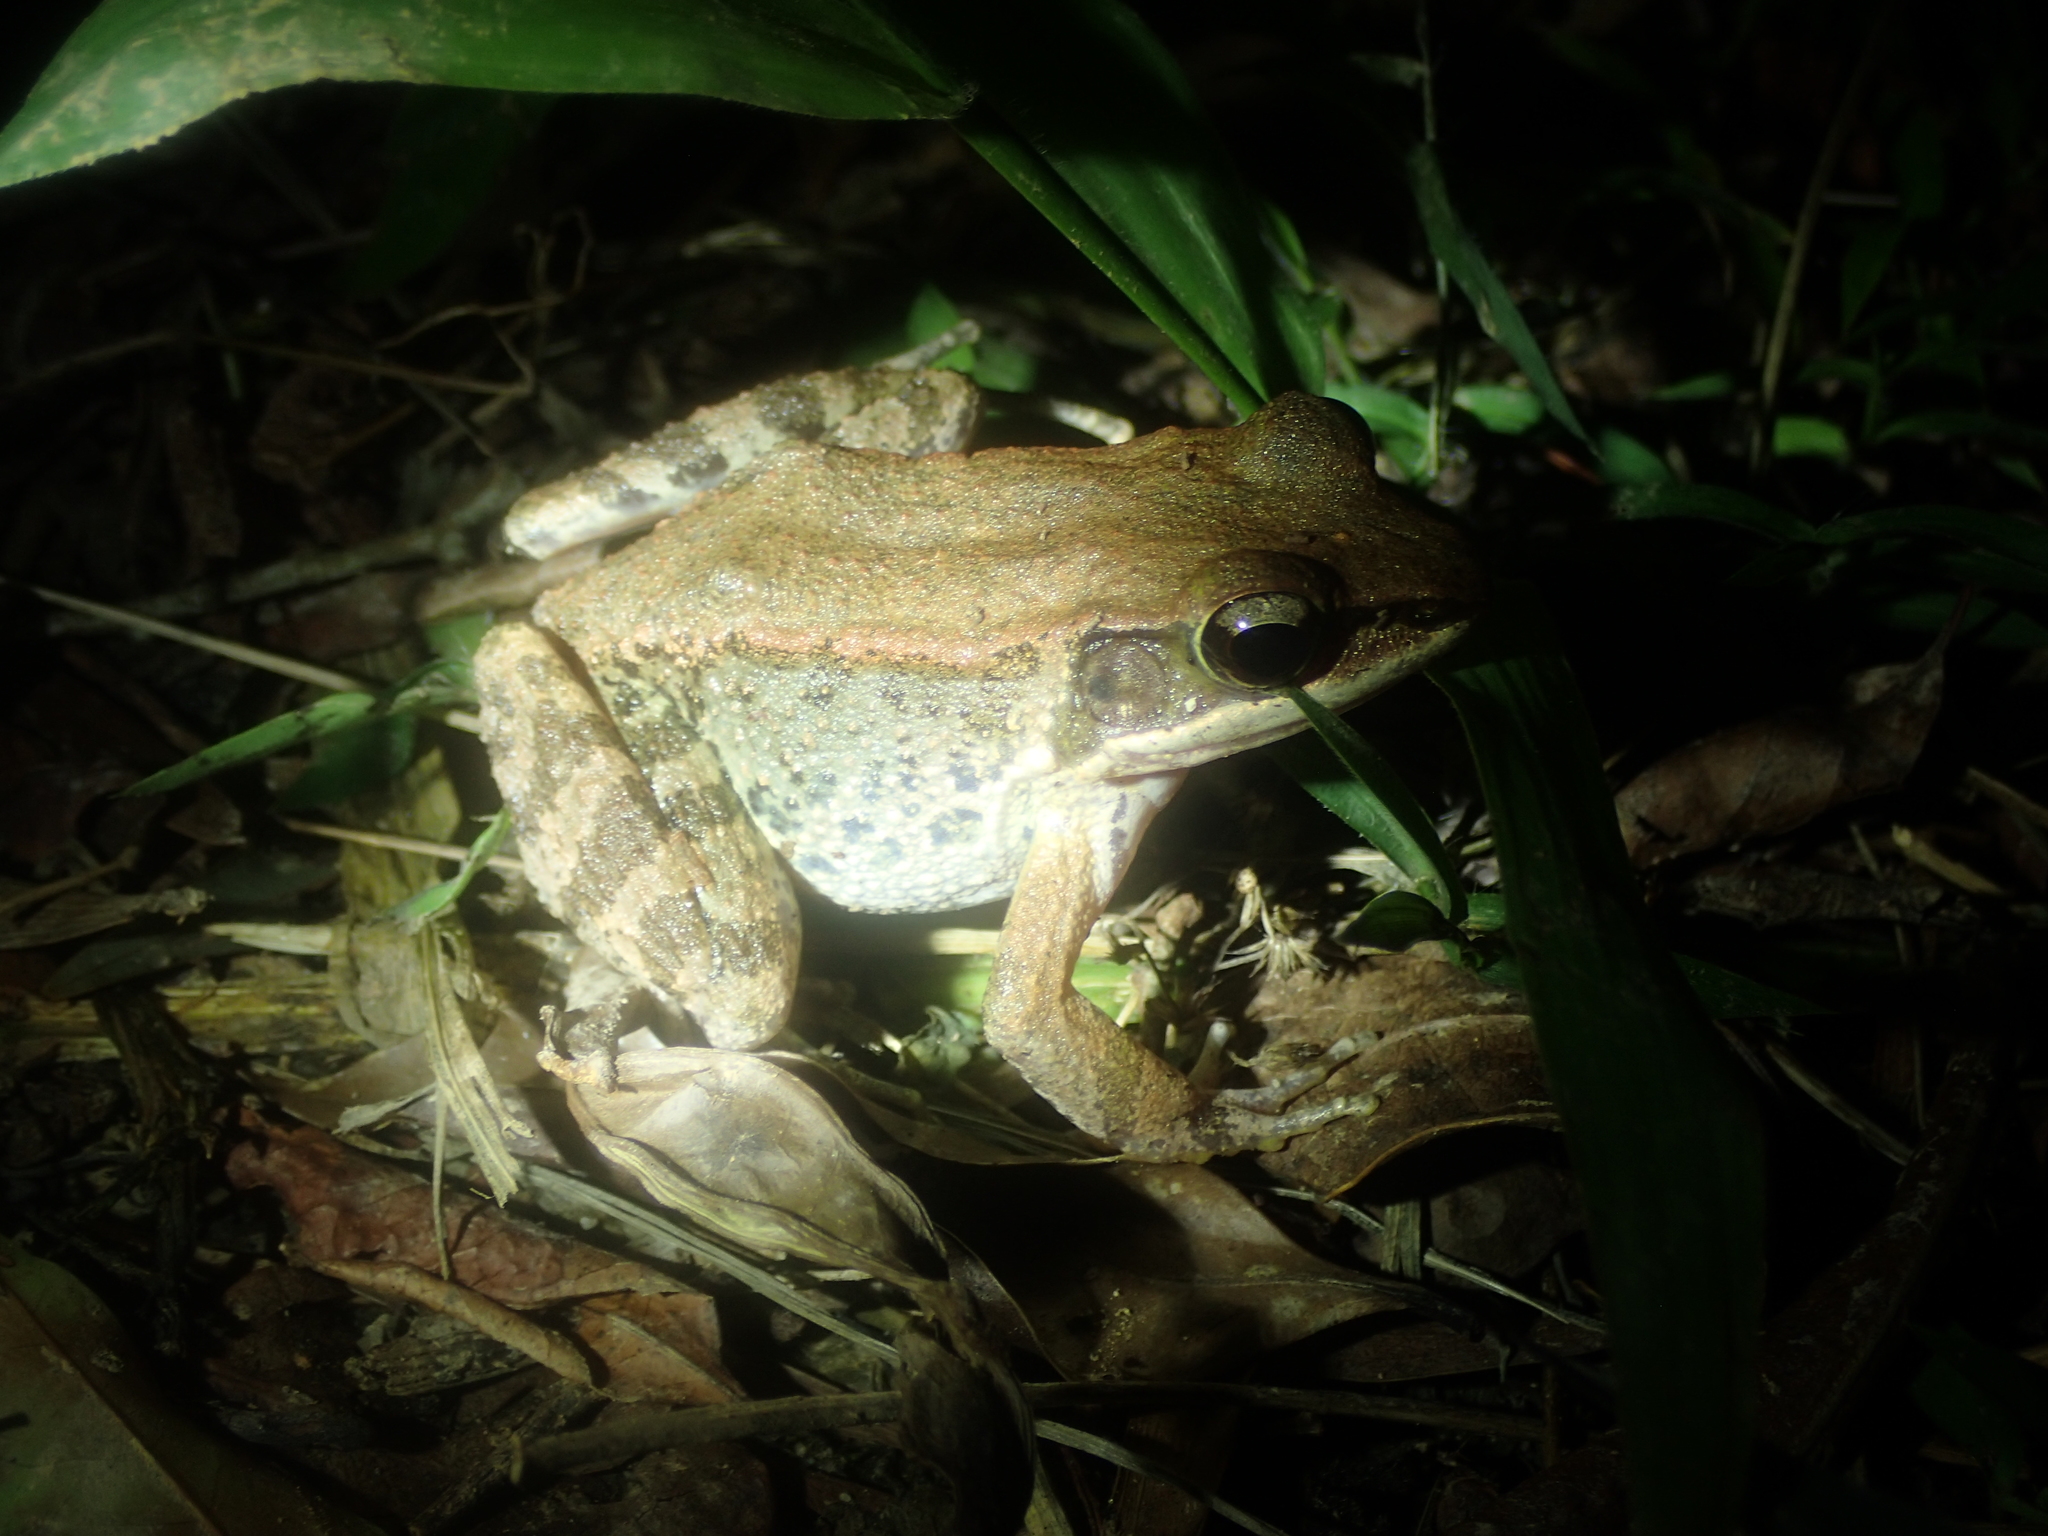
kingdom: Animalia
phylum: Chordata
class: Amphibia
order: Anura
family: Ranidae
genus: Hylarana
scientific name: Hylarana latouchii
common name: Broad-folded frog
